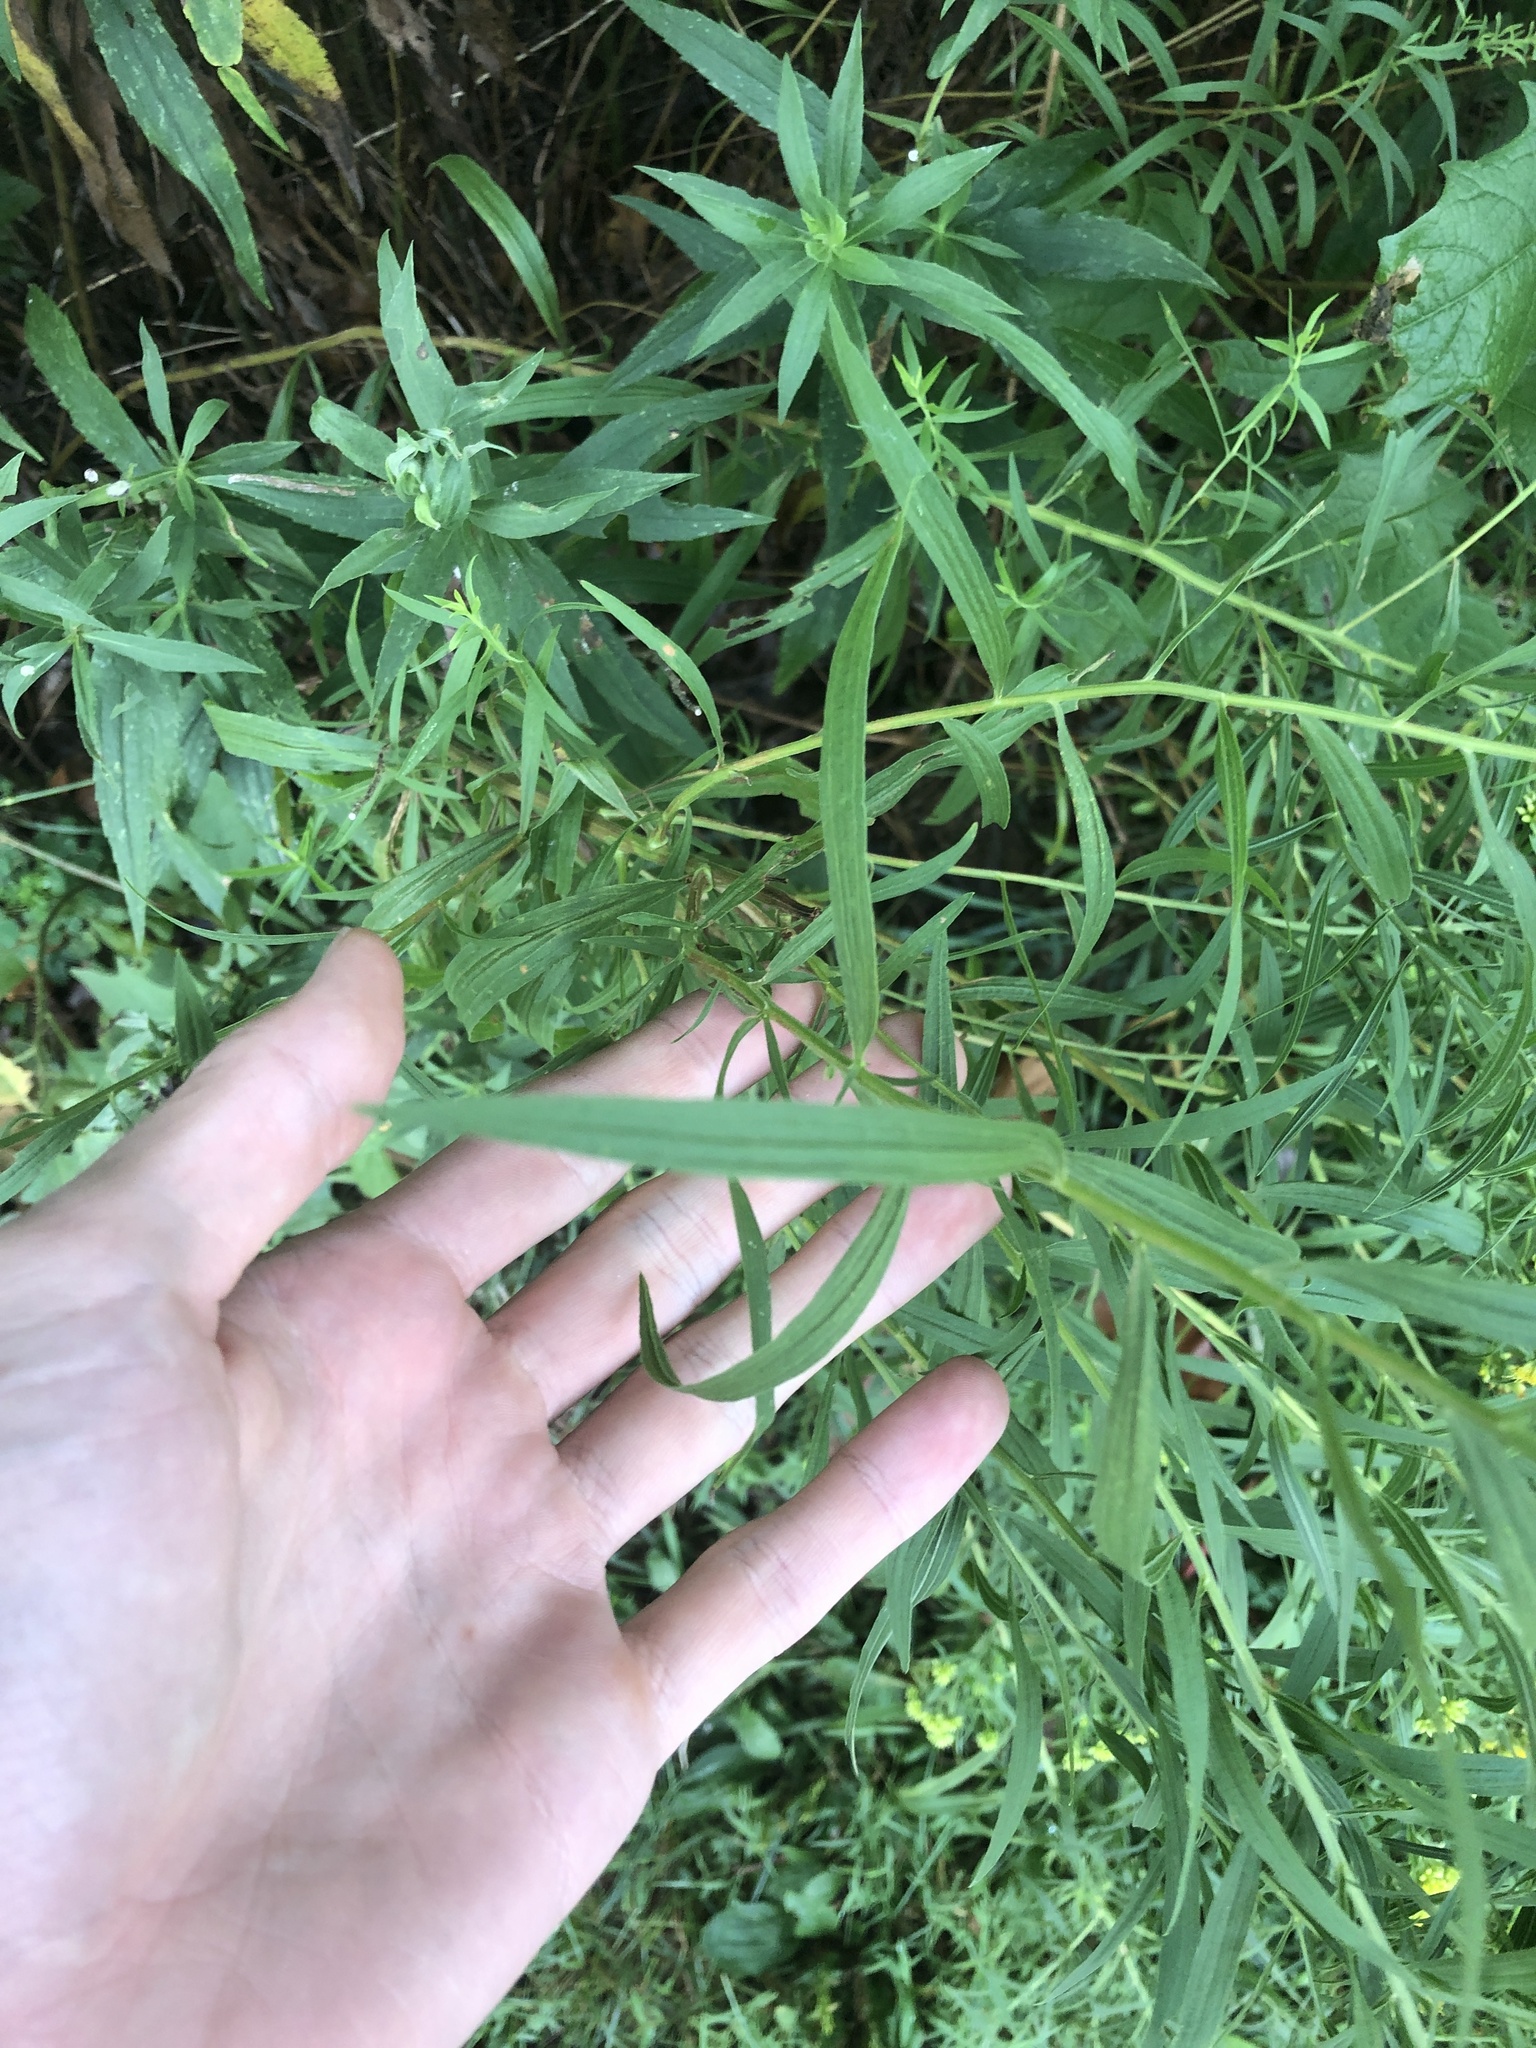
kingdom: Plantae
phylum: Tracheophyta
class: Magnoliopsida
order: Asterales
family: Asteraceae
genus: Euthamia
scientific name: Euthamia graminifolia
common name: Common goldentop
